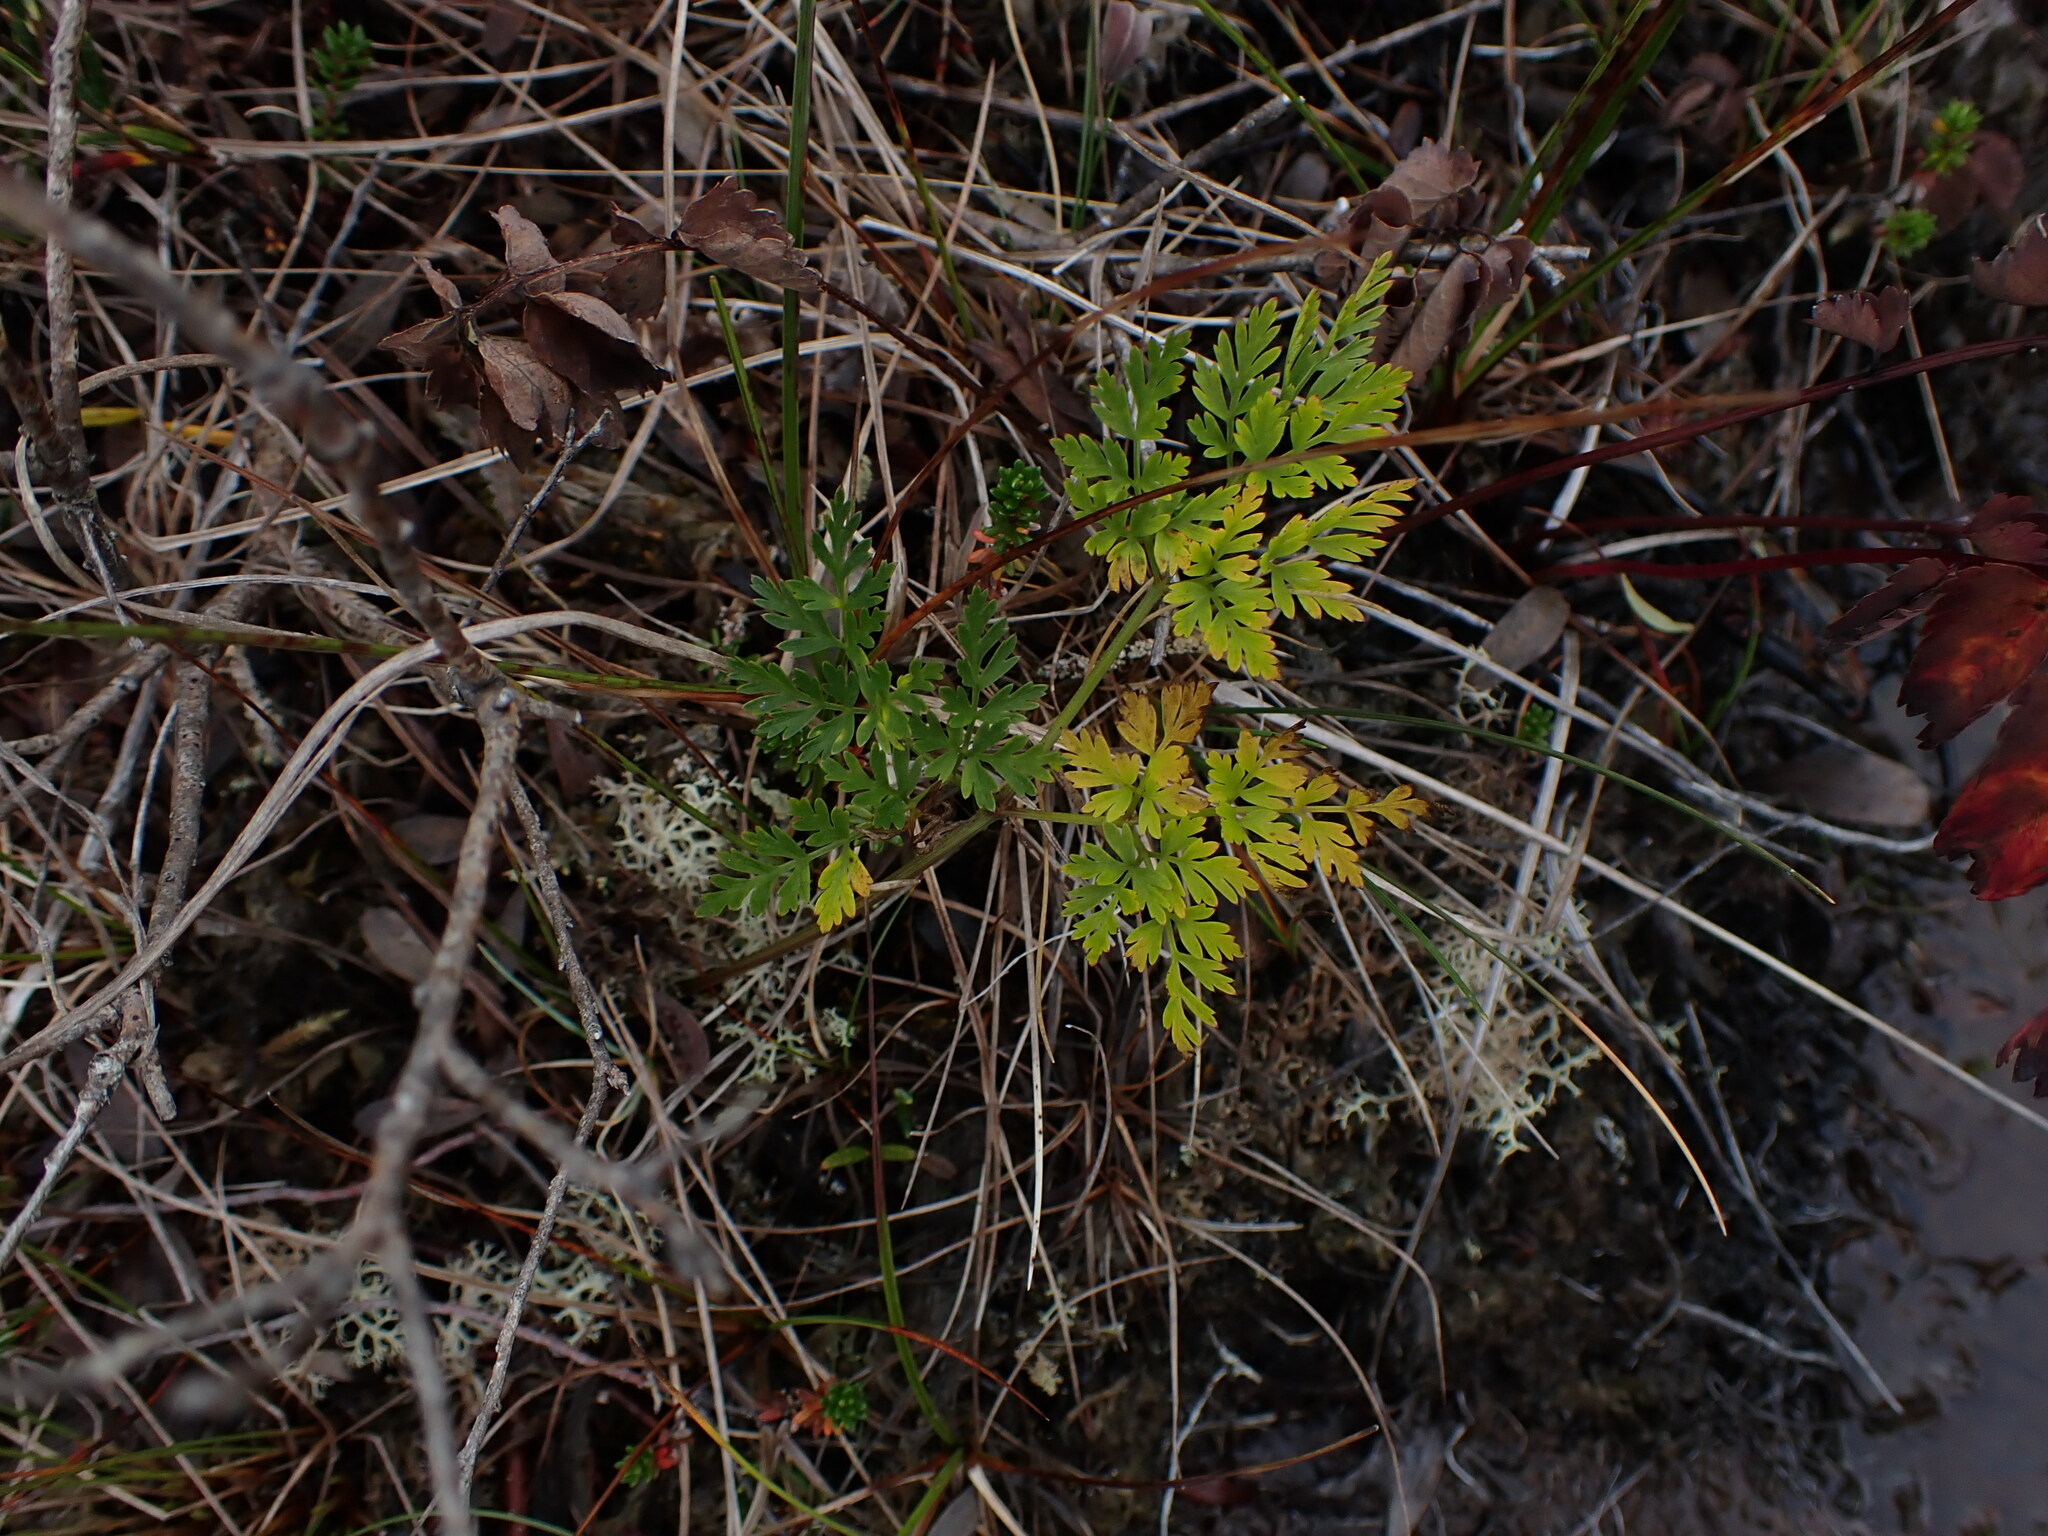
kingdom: Plantae
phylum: Tracheophyta
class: Magnoliopsida
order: Apiales
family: Apiaceae
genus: Ligusticum
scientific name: Ligusticum calderi
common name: Calder's licorice-root
